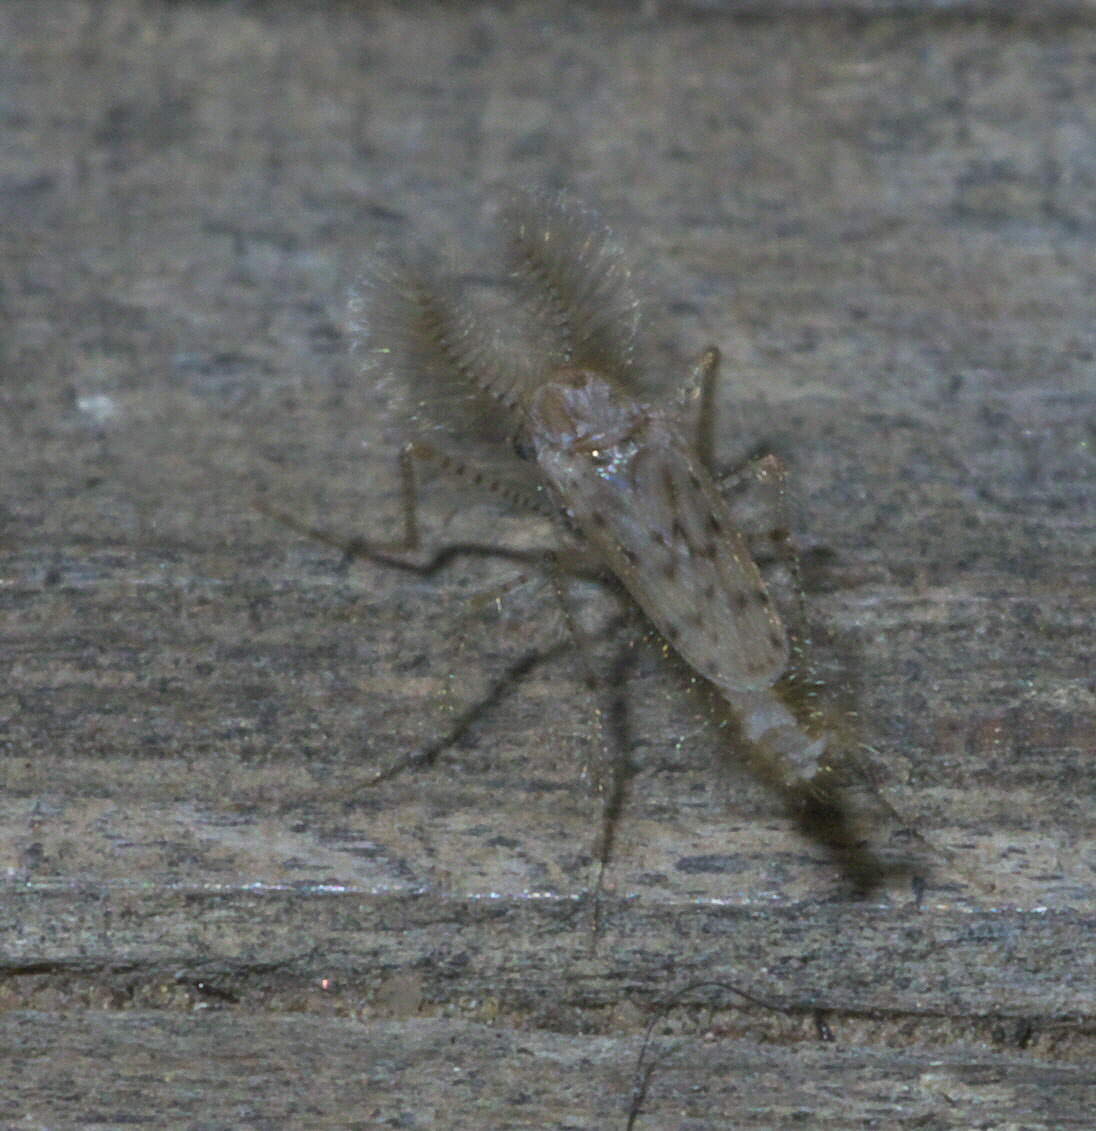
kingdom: Animalia
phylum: Arthropoda
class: Insecta
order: Diptera
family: Chaoboridae
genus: Chaoborus
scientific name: Chaoborus punctipennis
